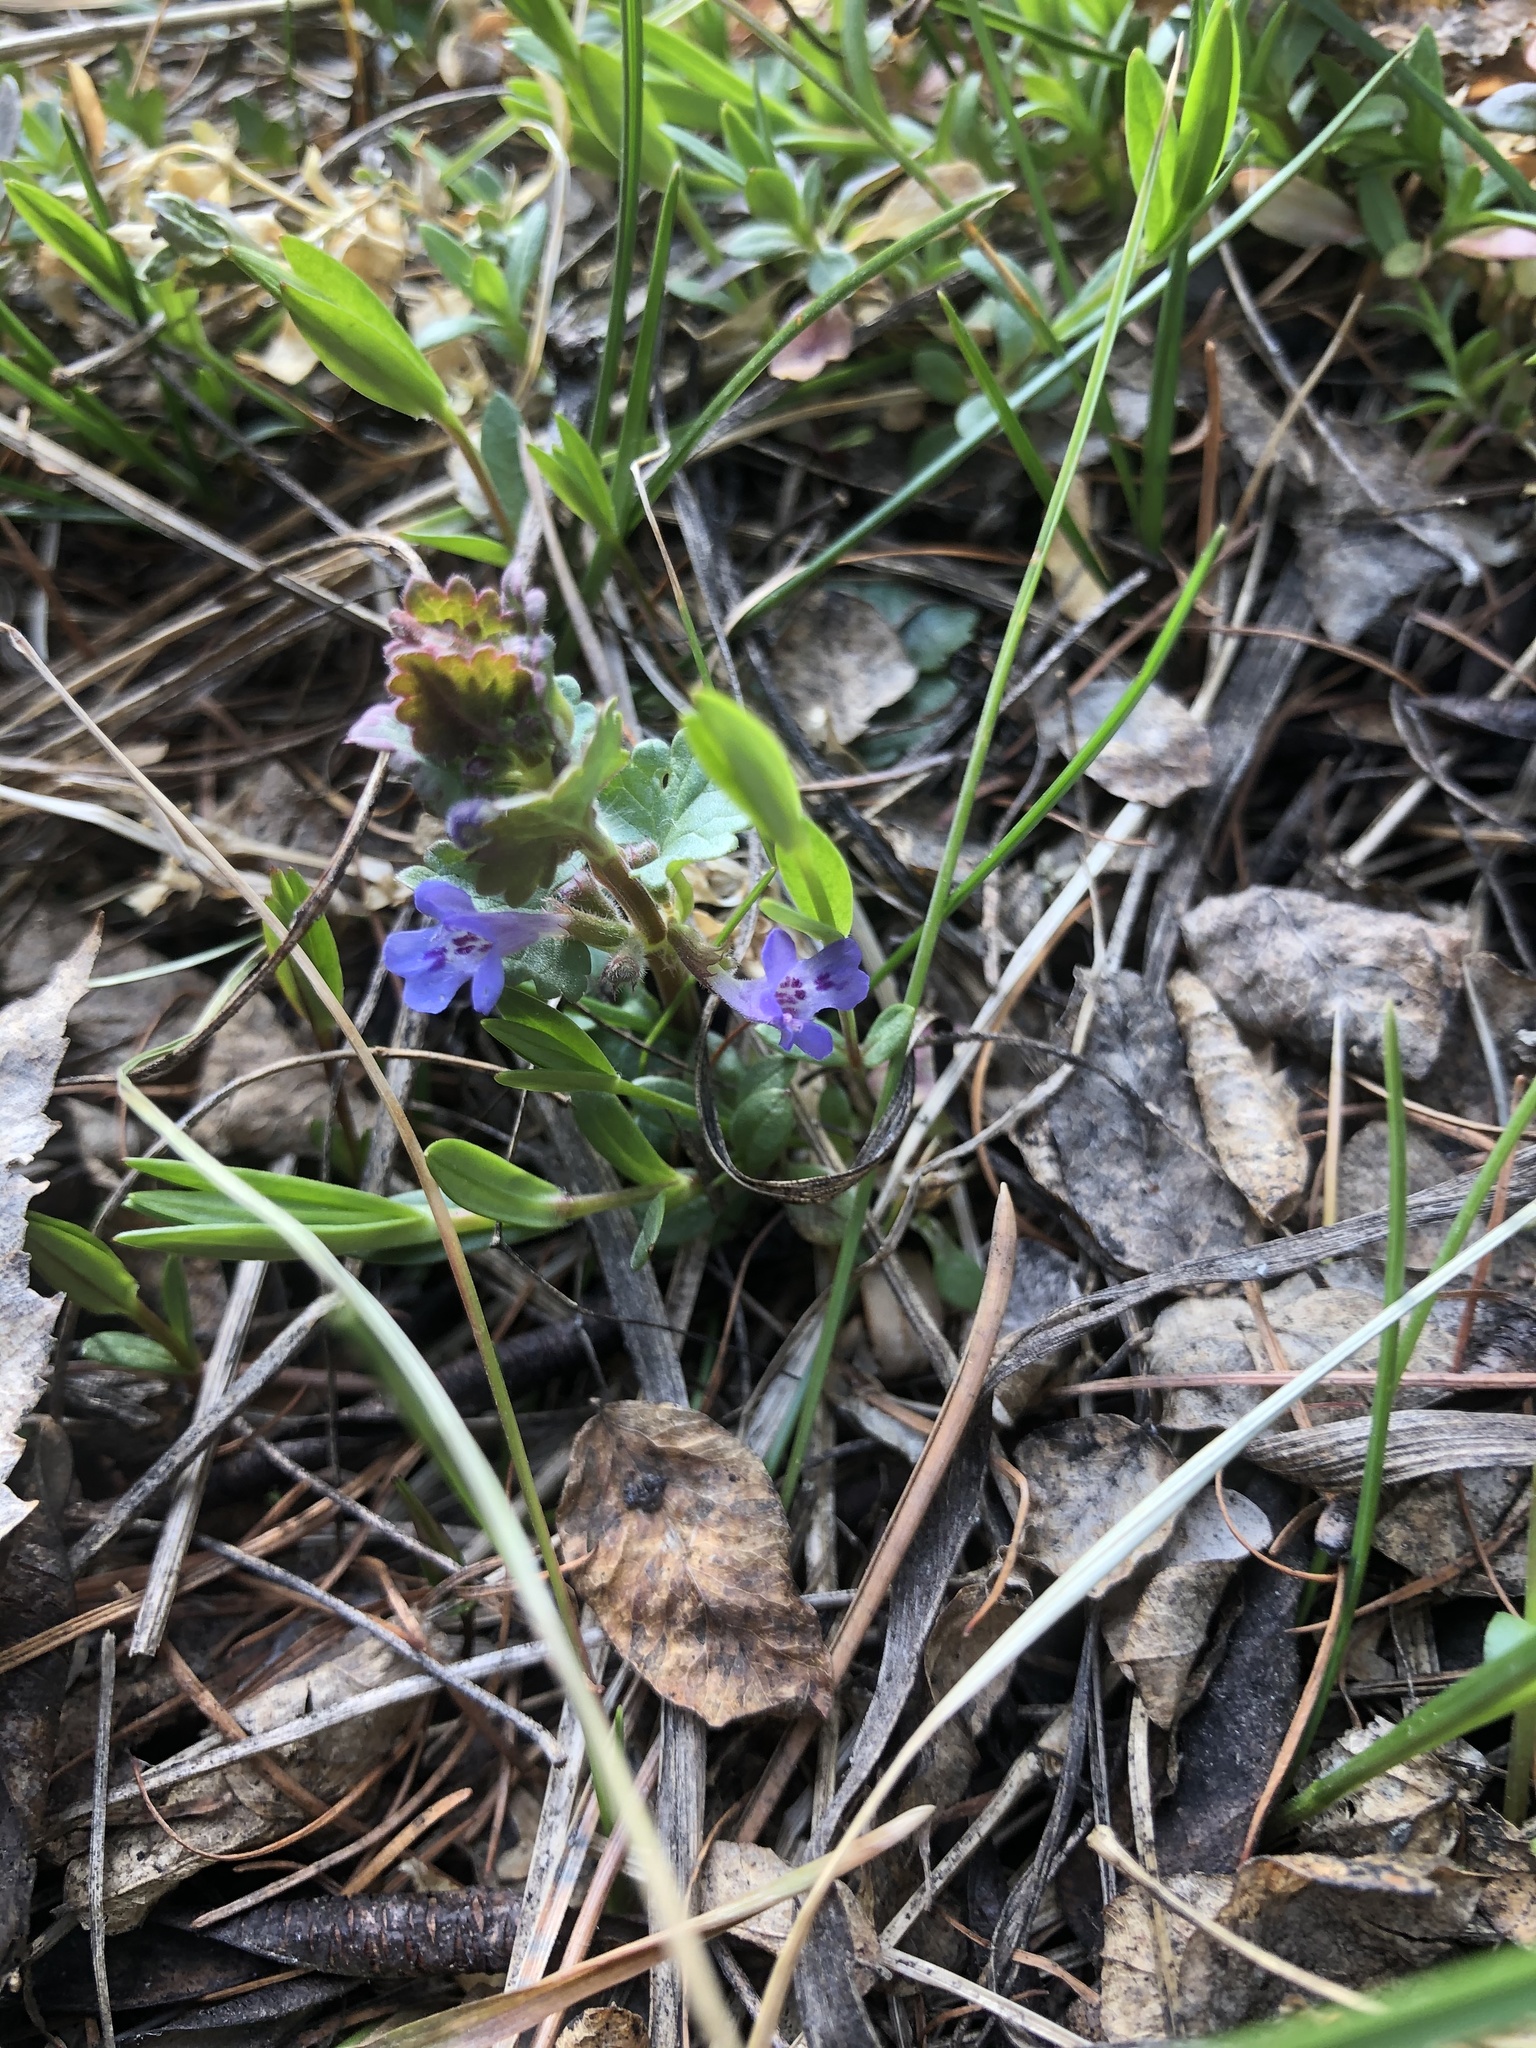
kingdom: Plantae
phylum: Tracheophyta
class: Magnoliopsida
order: Lamiales
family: Lamiaceae
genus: Glechoma
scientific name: Glechoma hederacea
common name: Ground ivy
